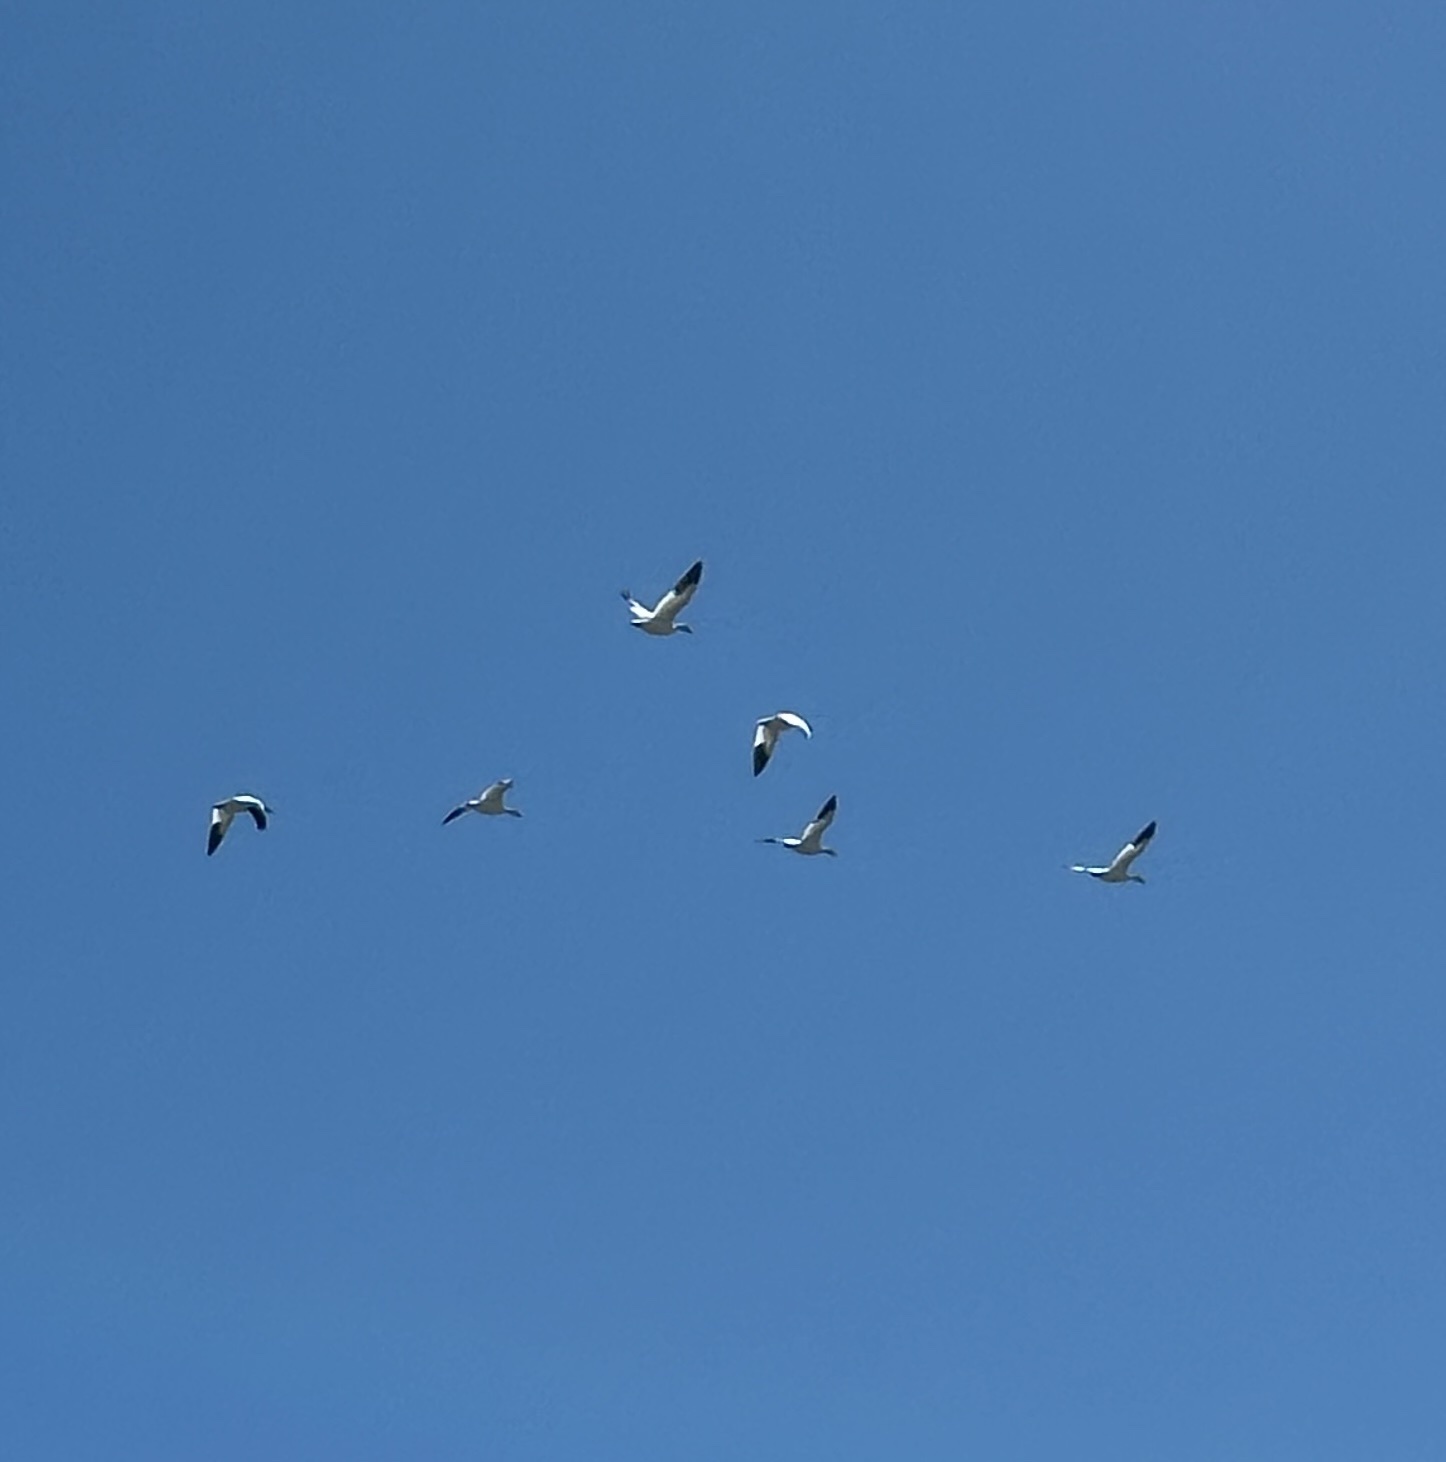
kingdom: Animalia
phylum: Chordata
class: Aves
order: Anseriformes
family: Anatidae
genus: Anser
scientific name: Anser caerulescens
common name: Snow goose
